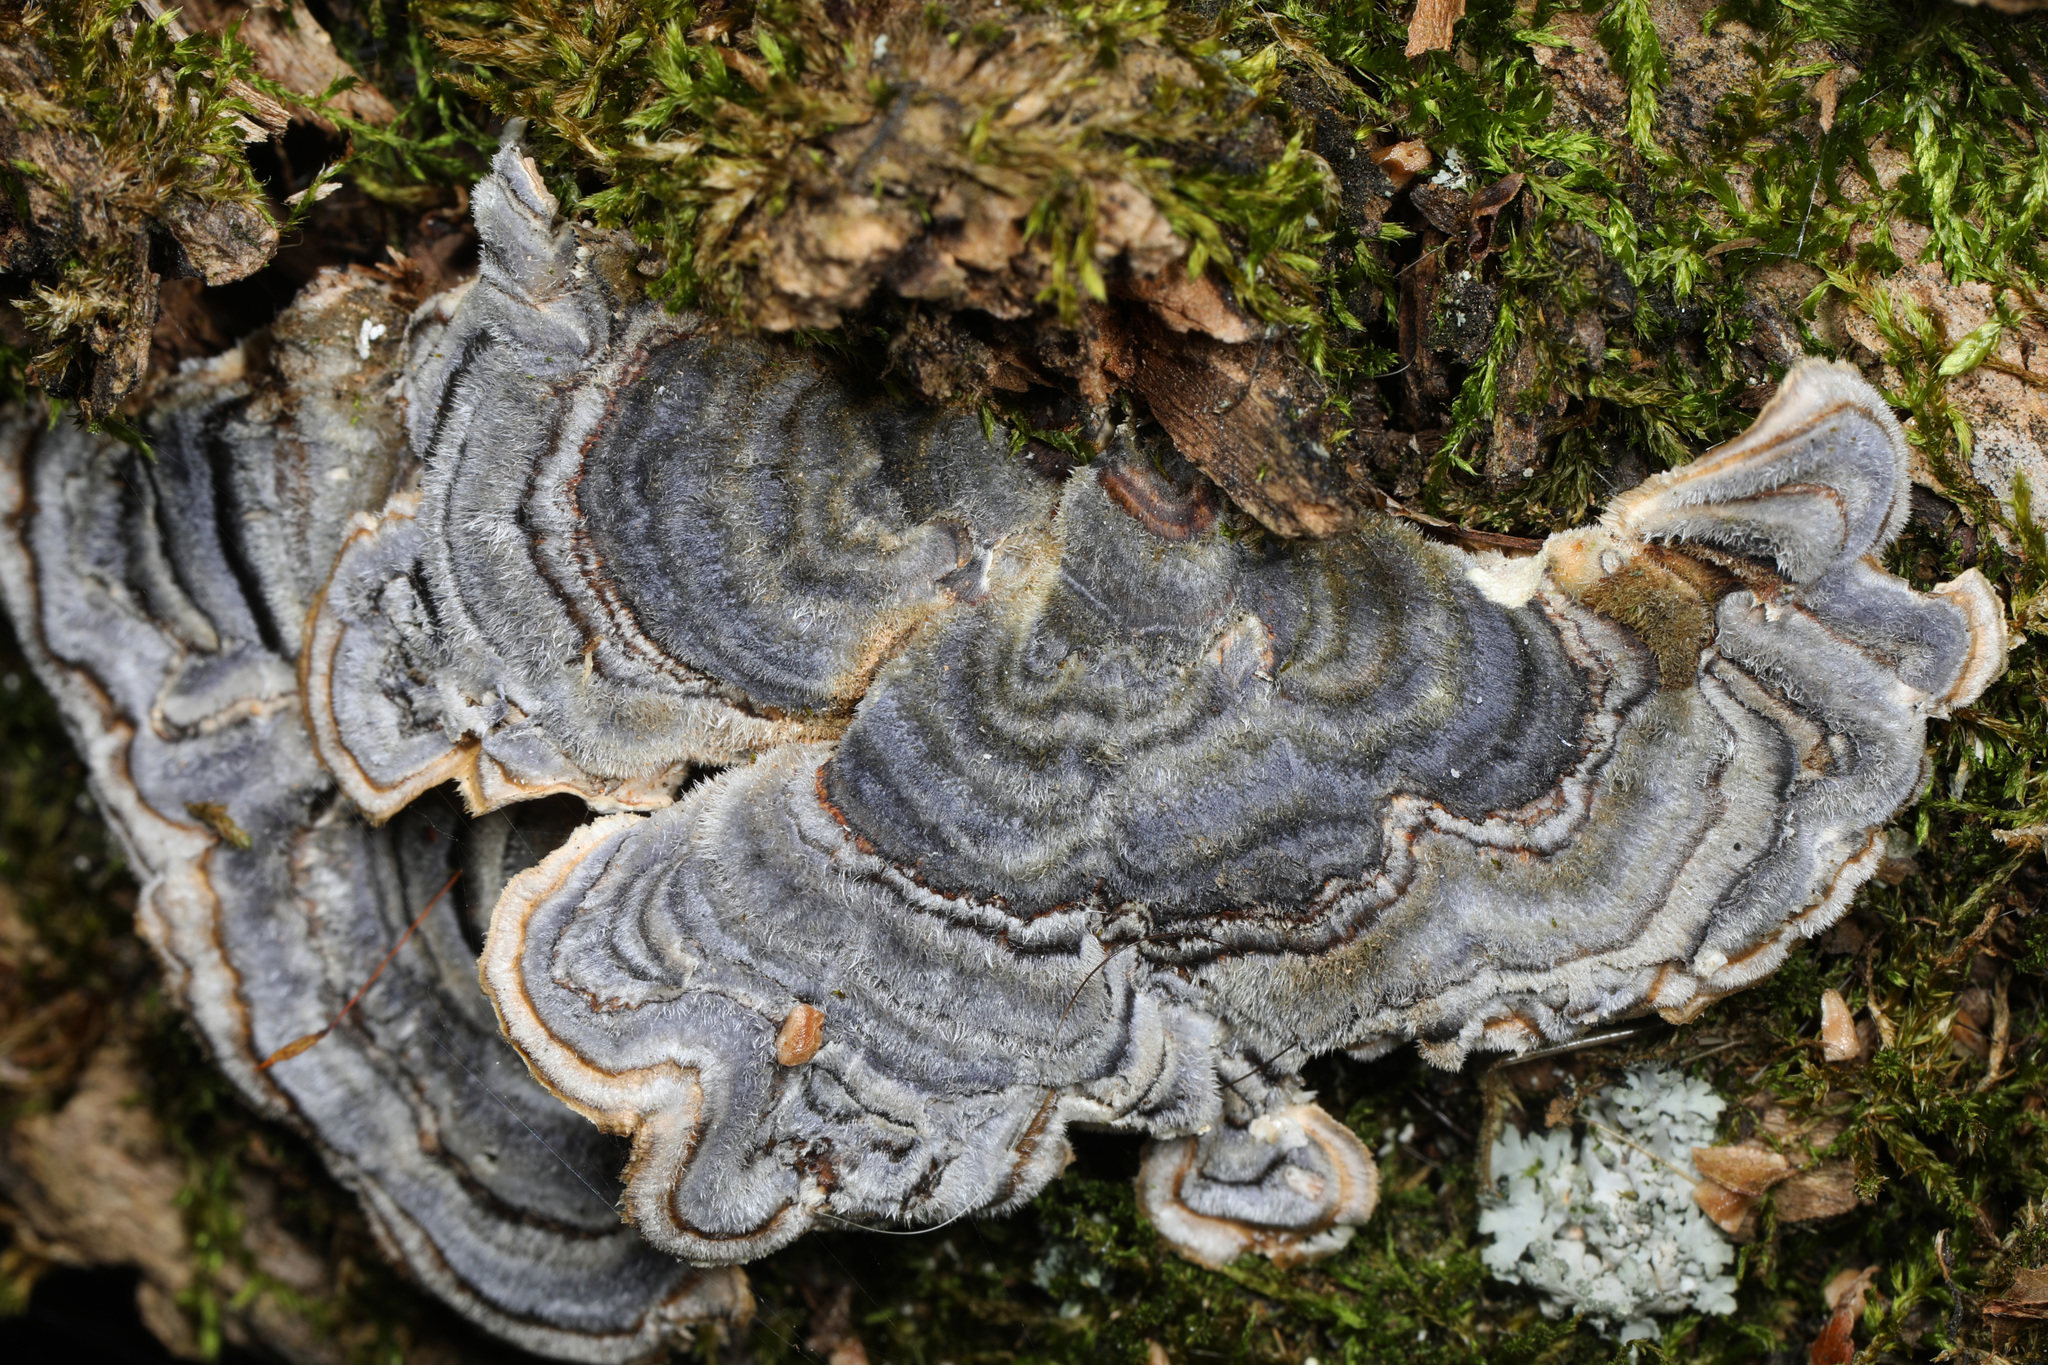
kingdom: Fungi
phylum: Basidiomycota
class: Agaricomycetes
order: Polyporales
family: Polyporaceae
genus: Trametes
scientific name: Trametes versicolor
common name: Turkeytail
